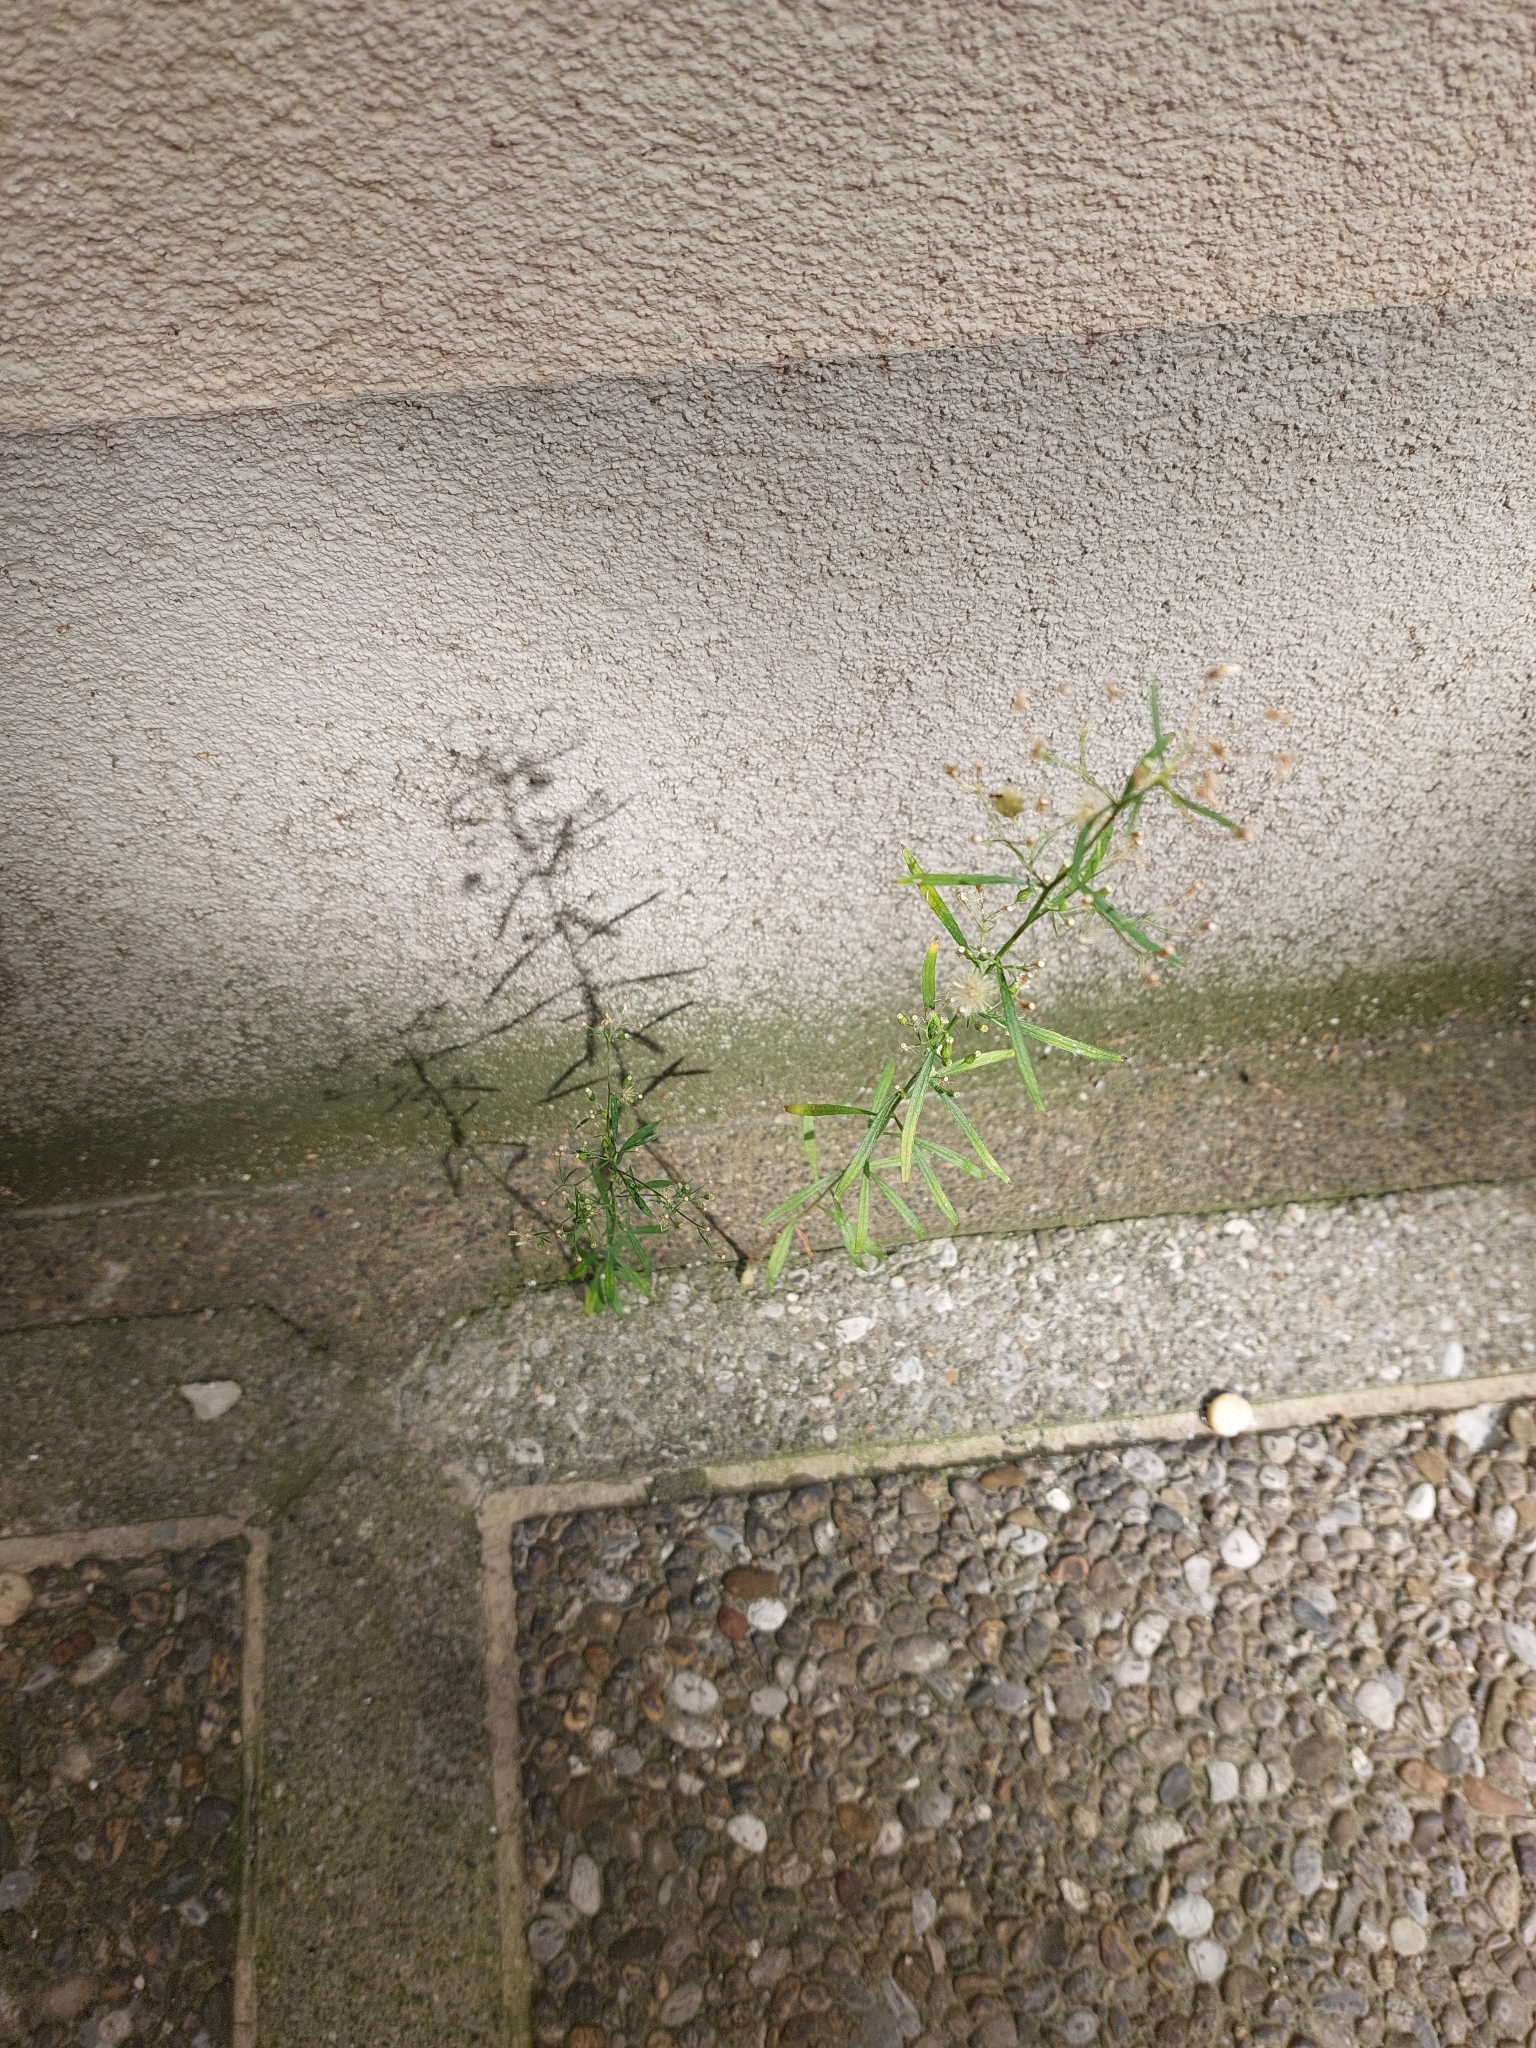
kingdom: Plantae
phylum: Tracheophyta
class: Magnoliopsida
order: Asterales
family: Asteraceae
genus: Erigeron
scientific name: Erigeron canadensis
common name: Canadian fleabane
